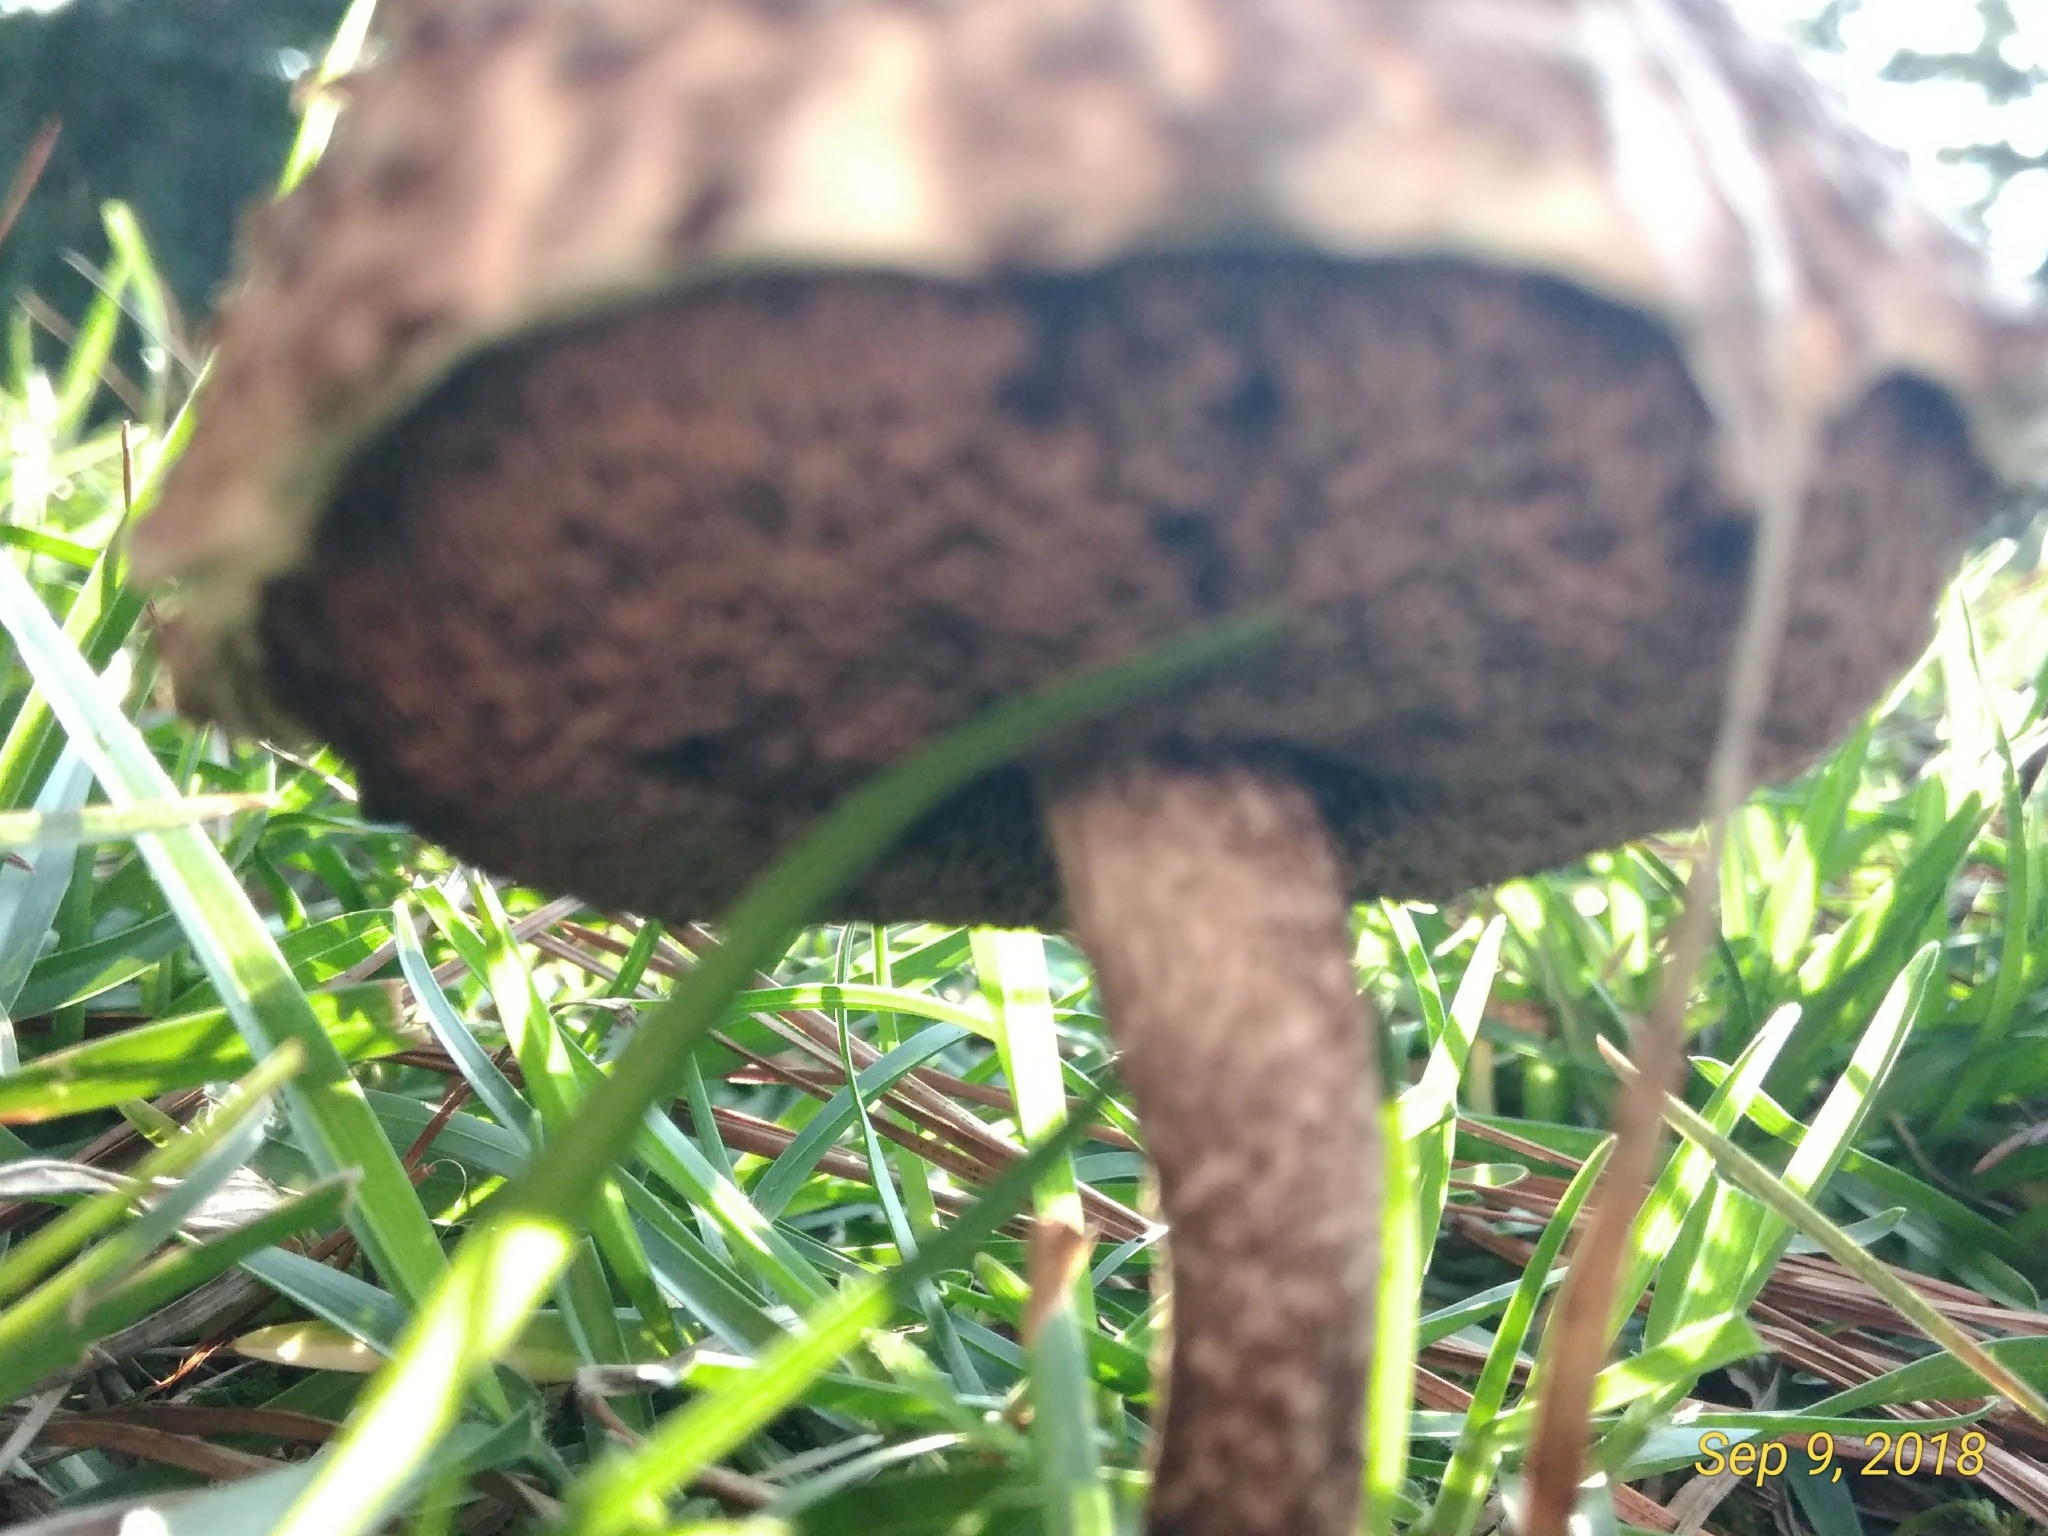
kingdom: Fungi
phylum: Basidiomycota
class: Agaricomycetes
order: Boletales
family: Boletaceae
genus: Strobilomyces
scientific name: Strobilomyces strobilaceus
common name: Old man of the woods
